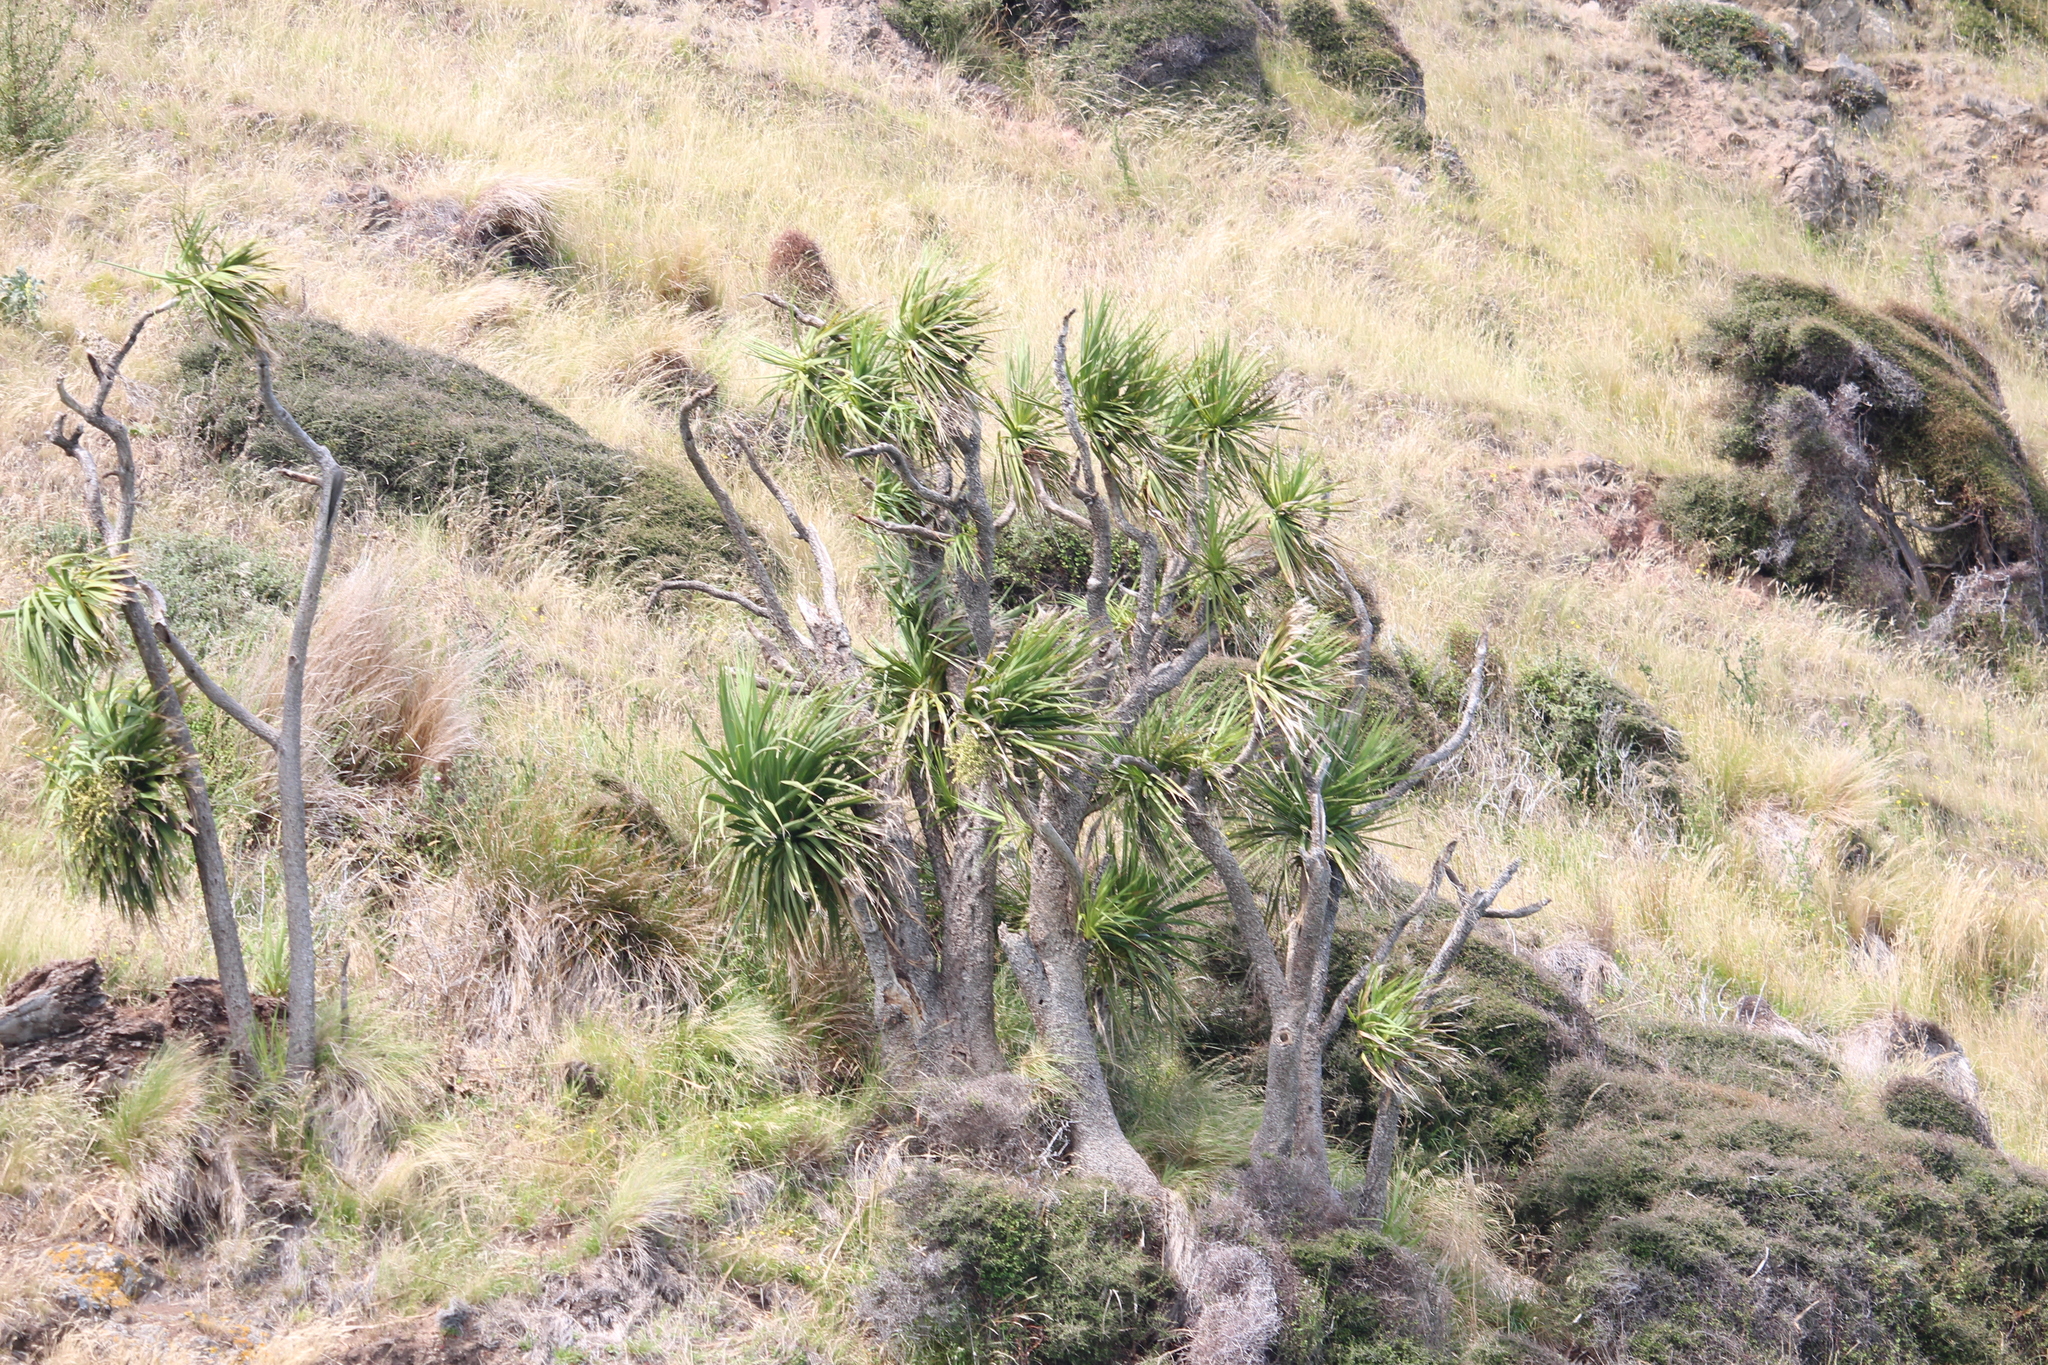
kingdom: Plantae
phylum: Tracheophyta
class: Liliopsida
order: Asparagales
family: Asparagaceae
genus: Cordyline
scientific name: Cordyline australis
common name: Cabbage-palm
